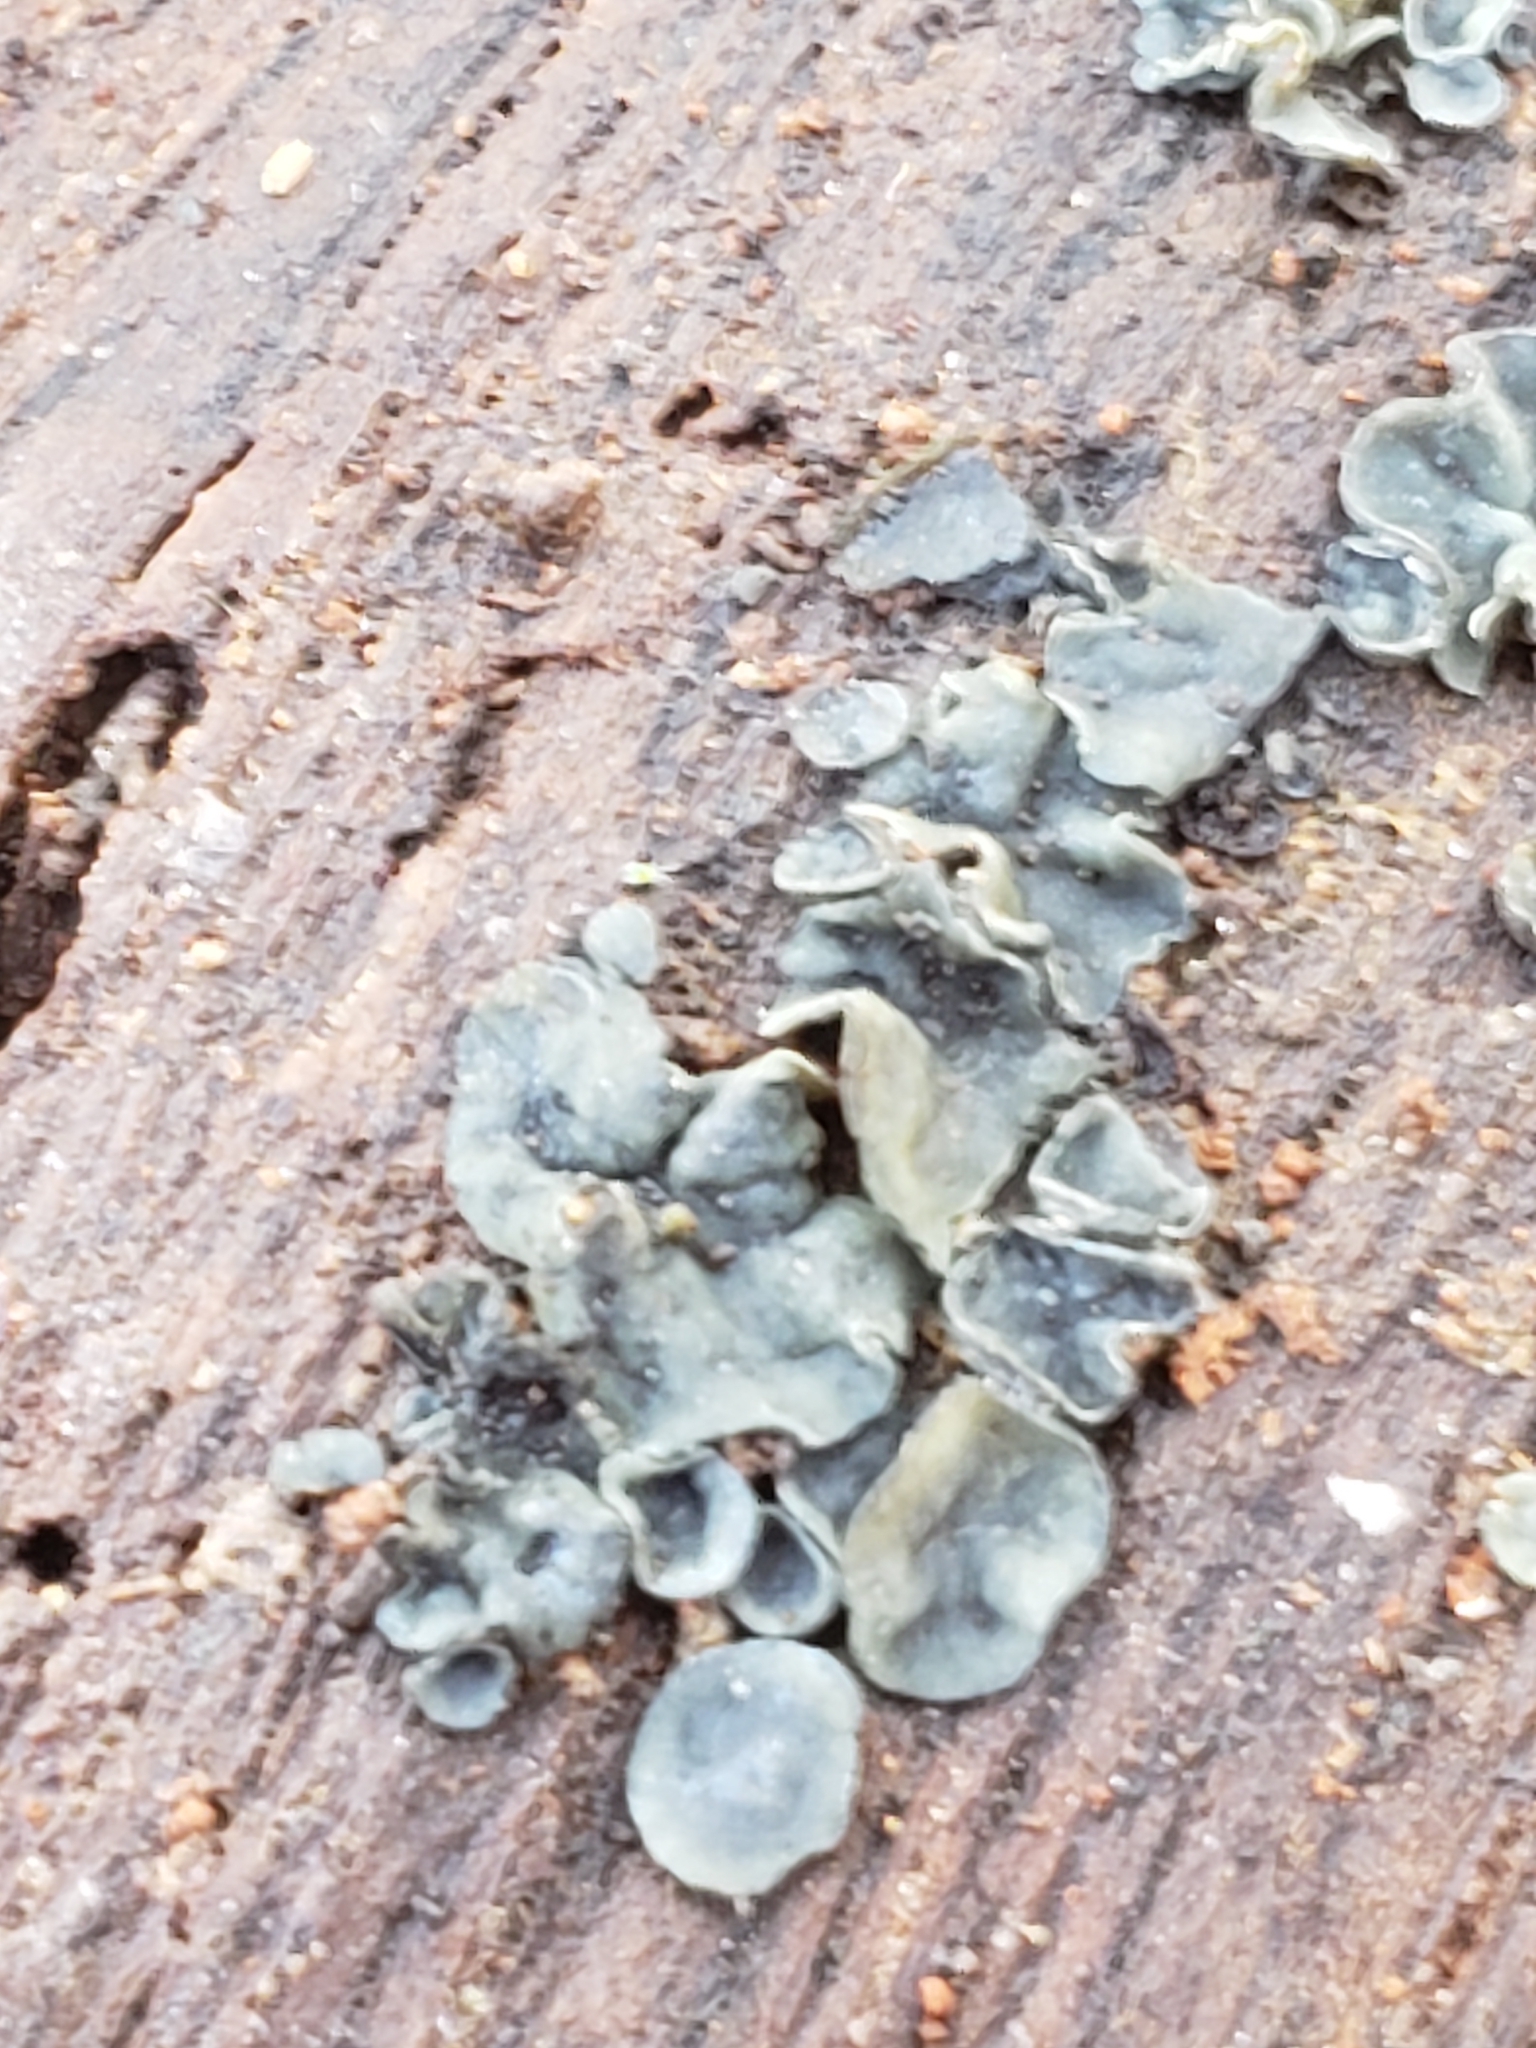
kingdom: Fungi
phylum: Ascomycota
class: Leotiomycetes
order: Helotiales
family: Chlorospleniaceae
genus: Chlorosplenium
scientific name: Chlorosplenium chlora
